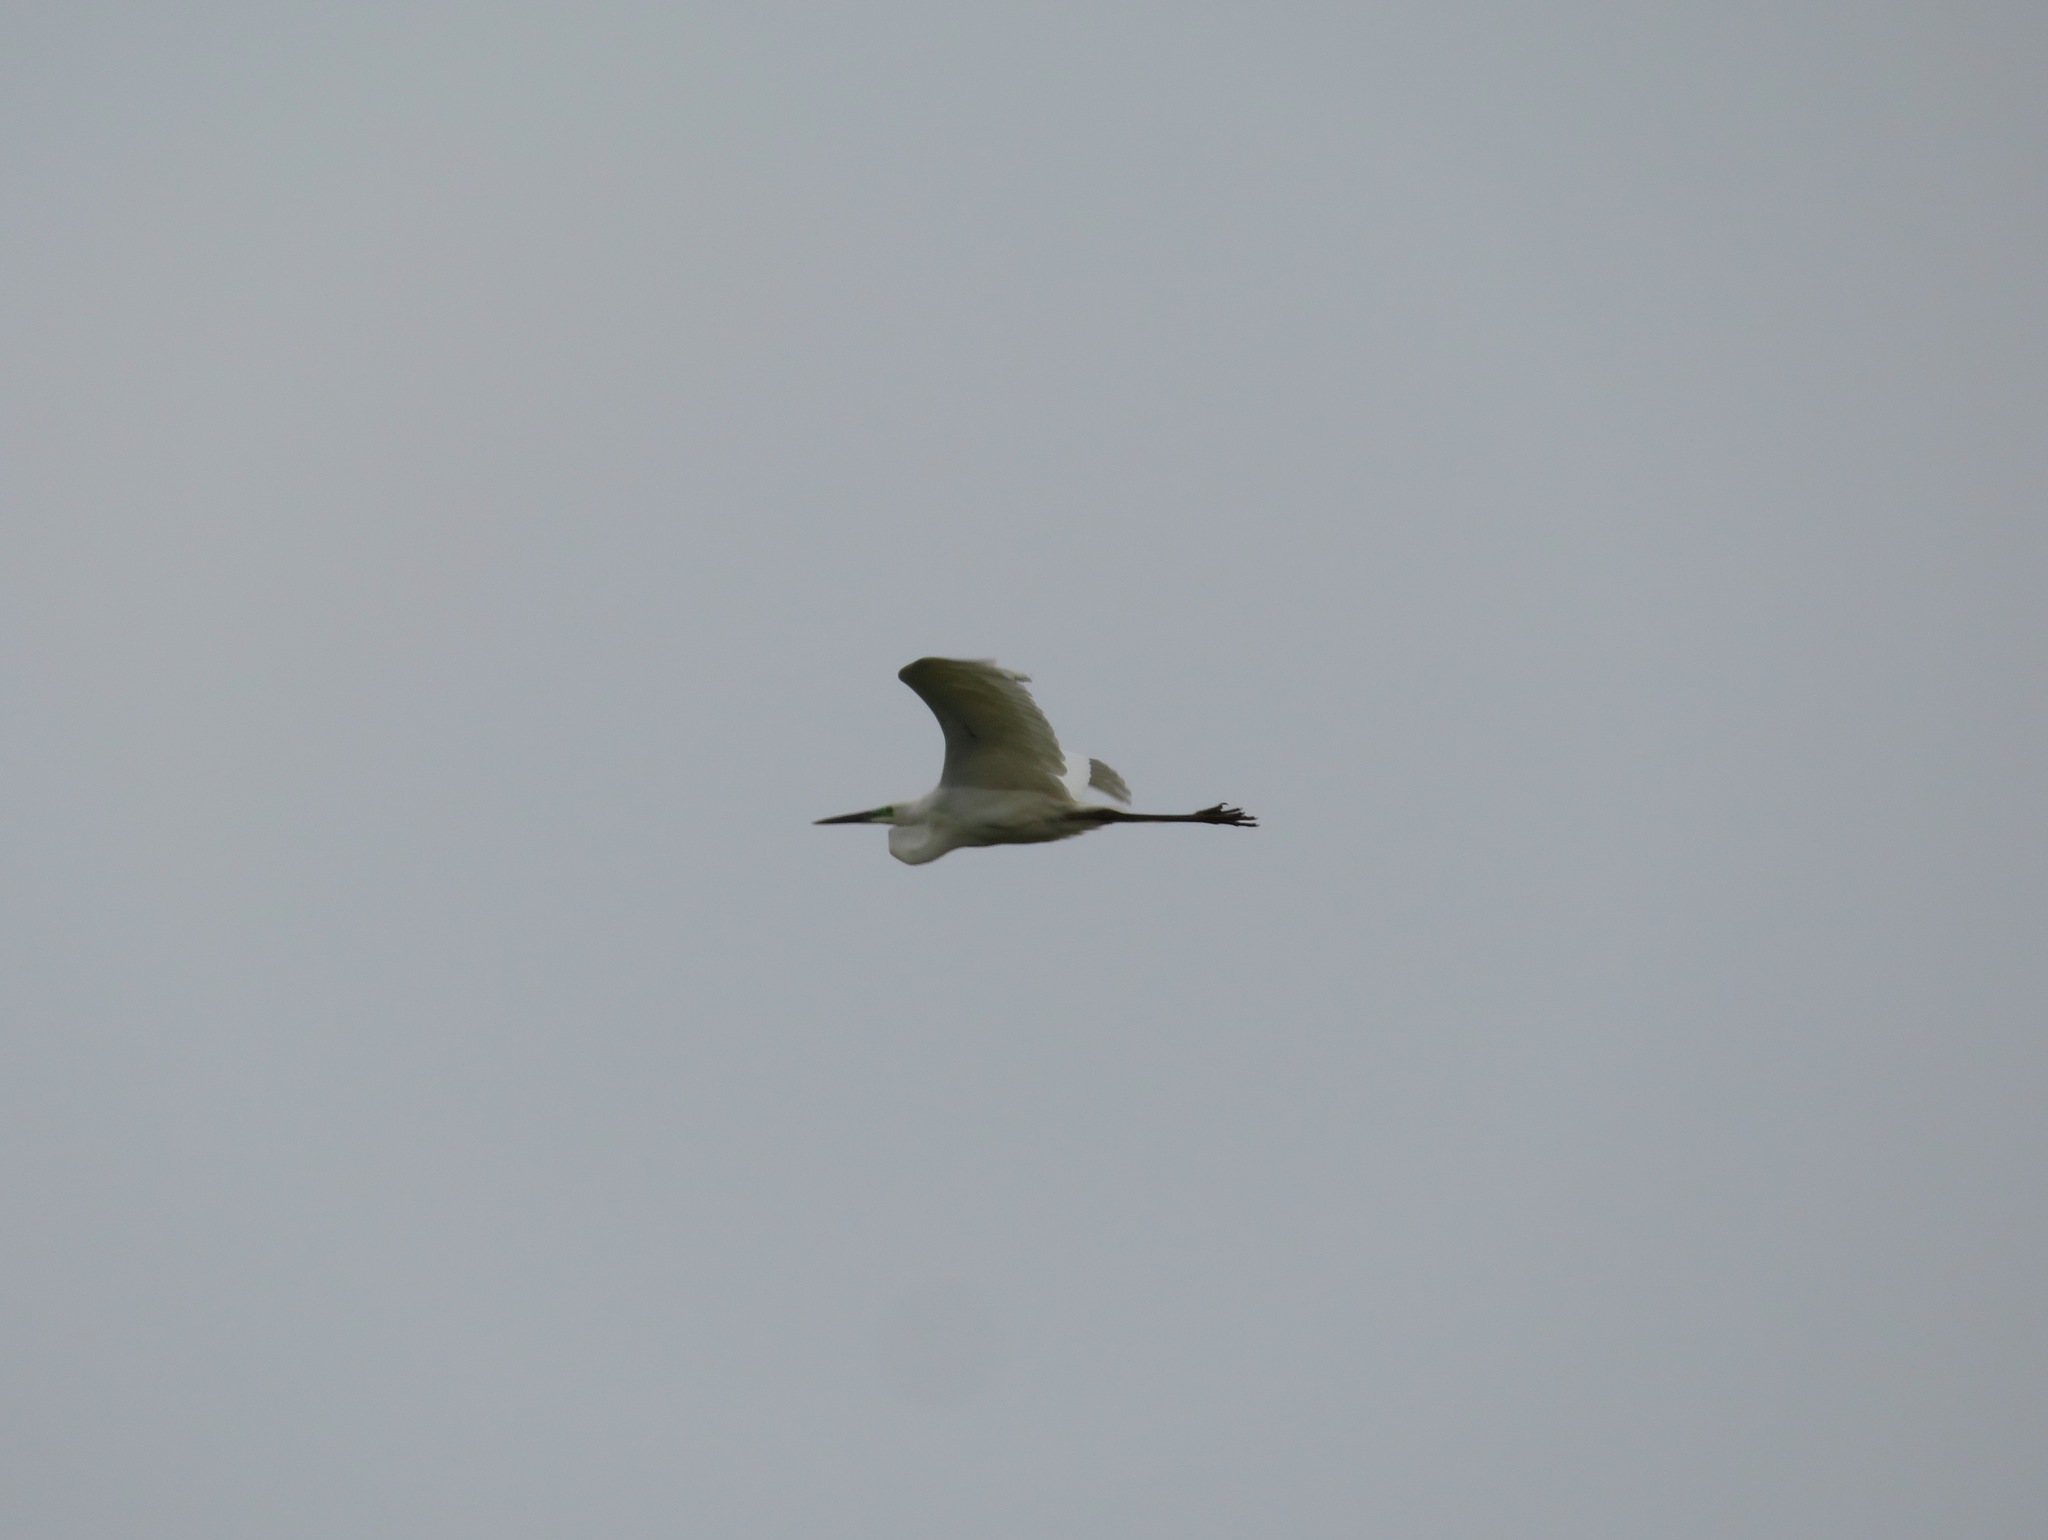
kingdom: Animalia
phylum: Chordata
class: Aves
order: Pelecaniformes
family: Ardeidae
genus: Ardea
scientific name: Ardea alba
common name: Great egret
